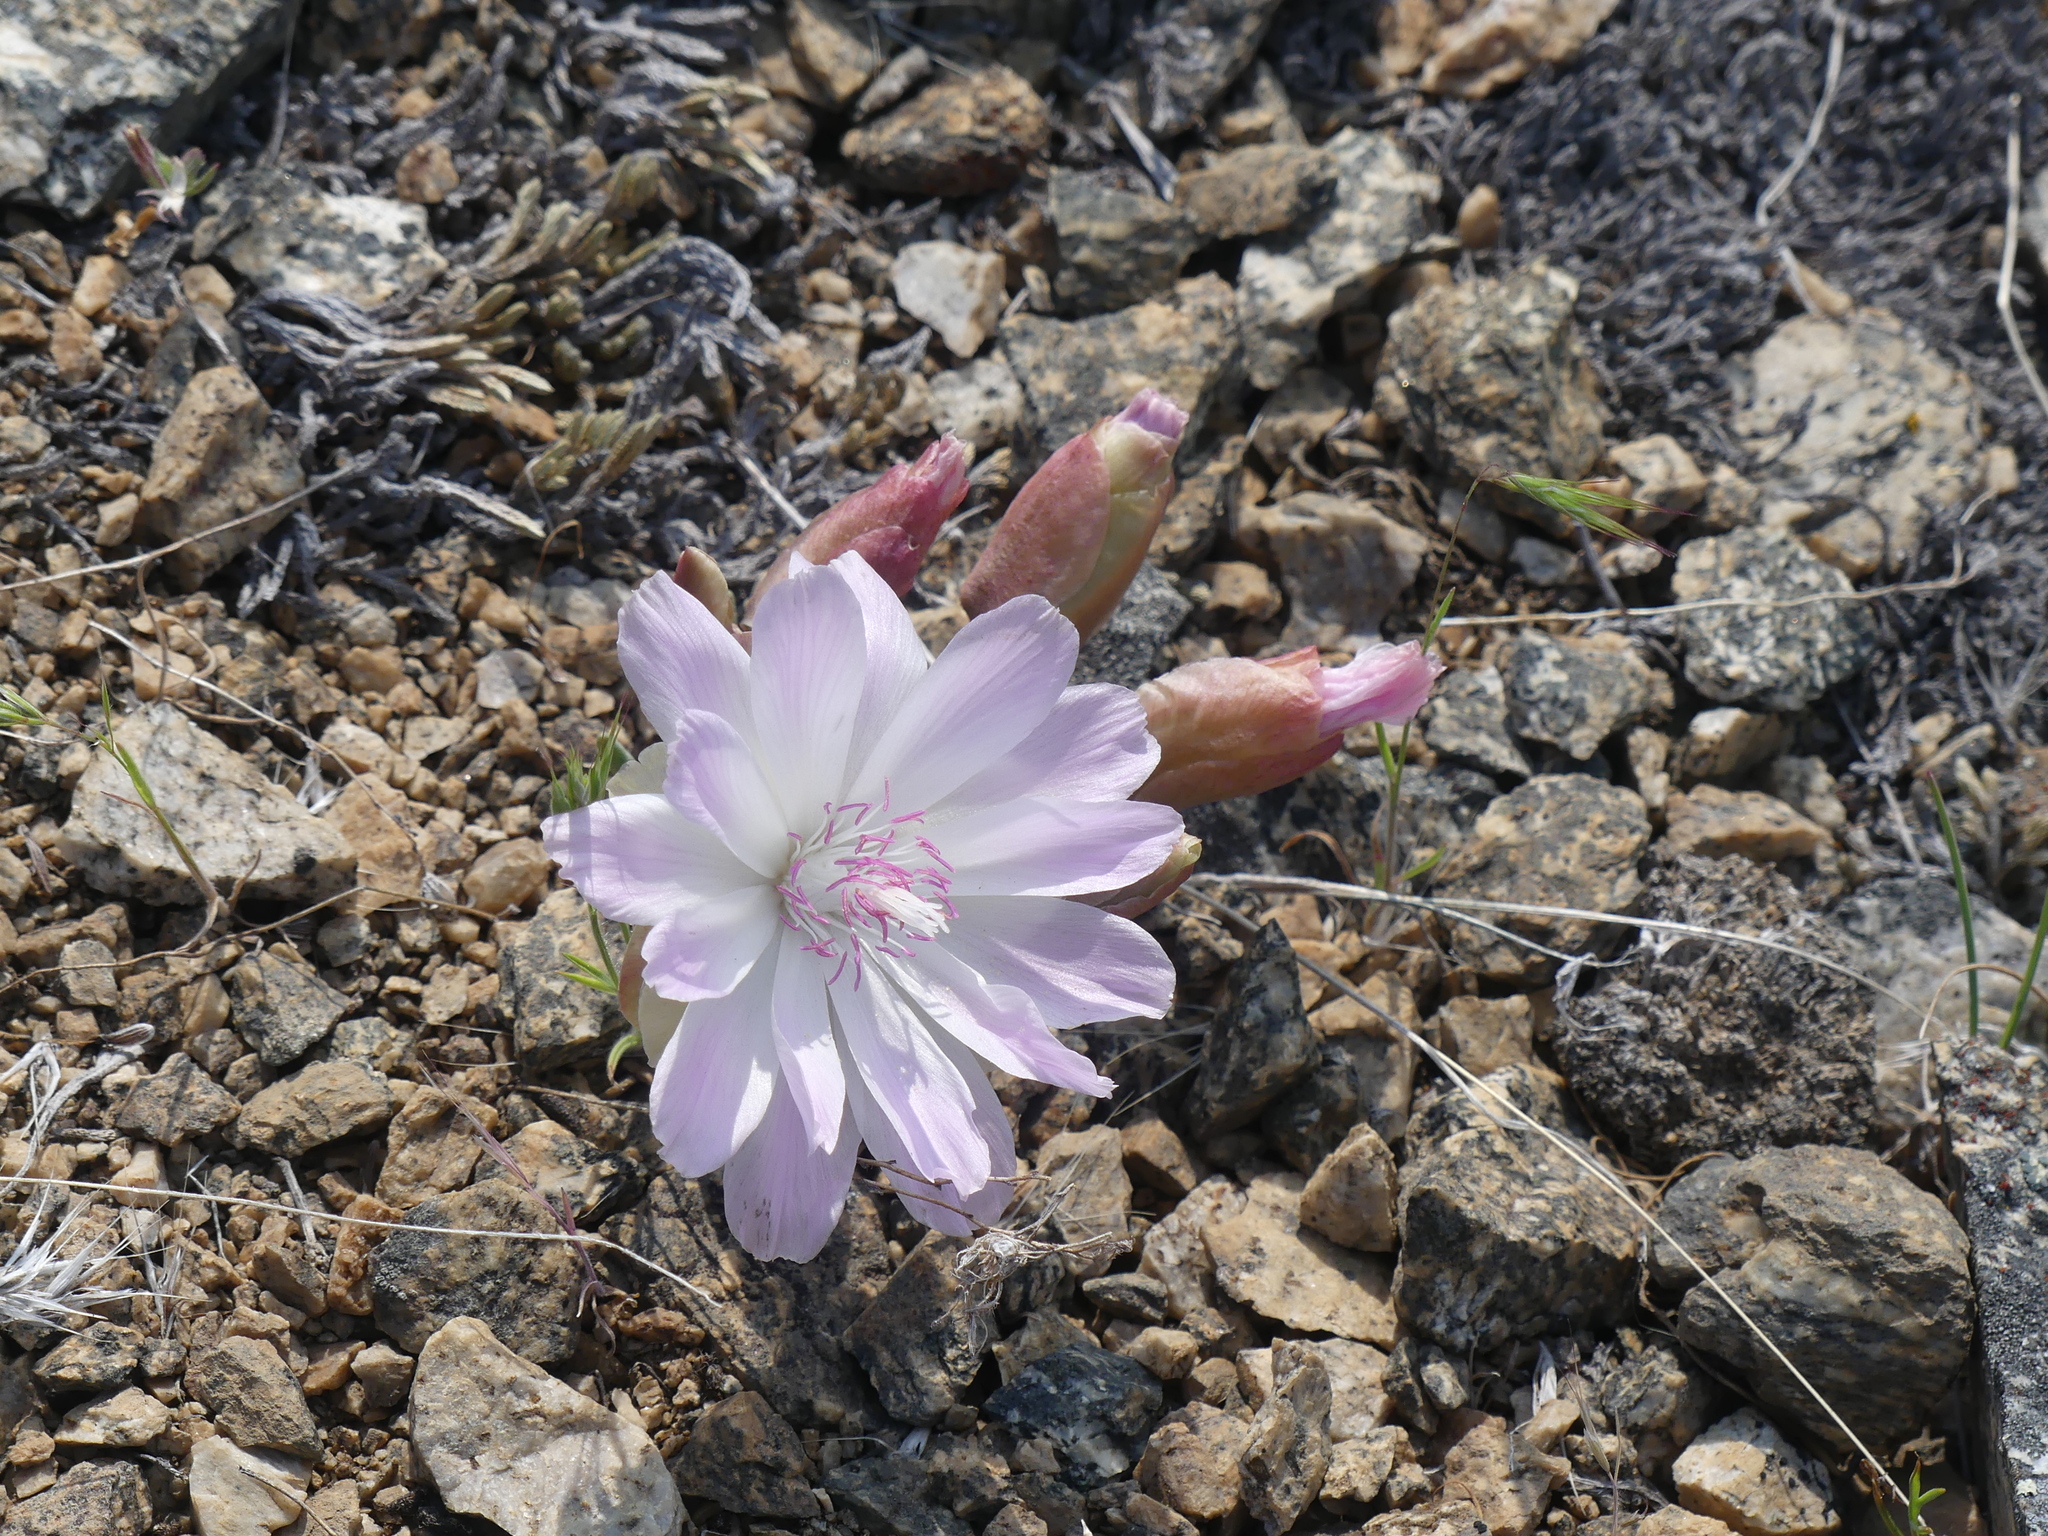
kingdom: Plantae
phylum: Tracheophyta
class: Magnoliopsida
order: Caryophyllales
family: Montiaceae
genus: Lewisia
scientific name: Lewisia rediviva
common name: Bitter-root
